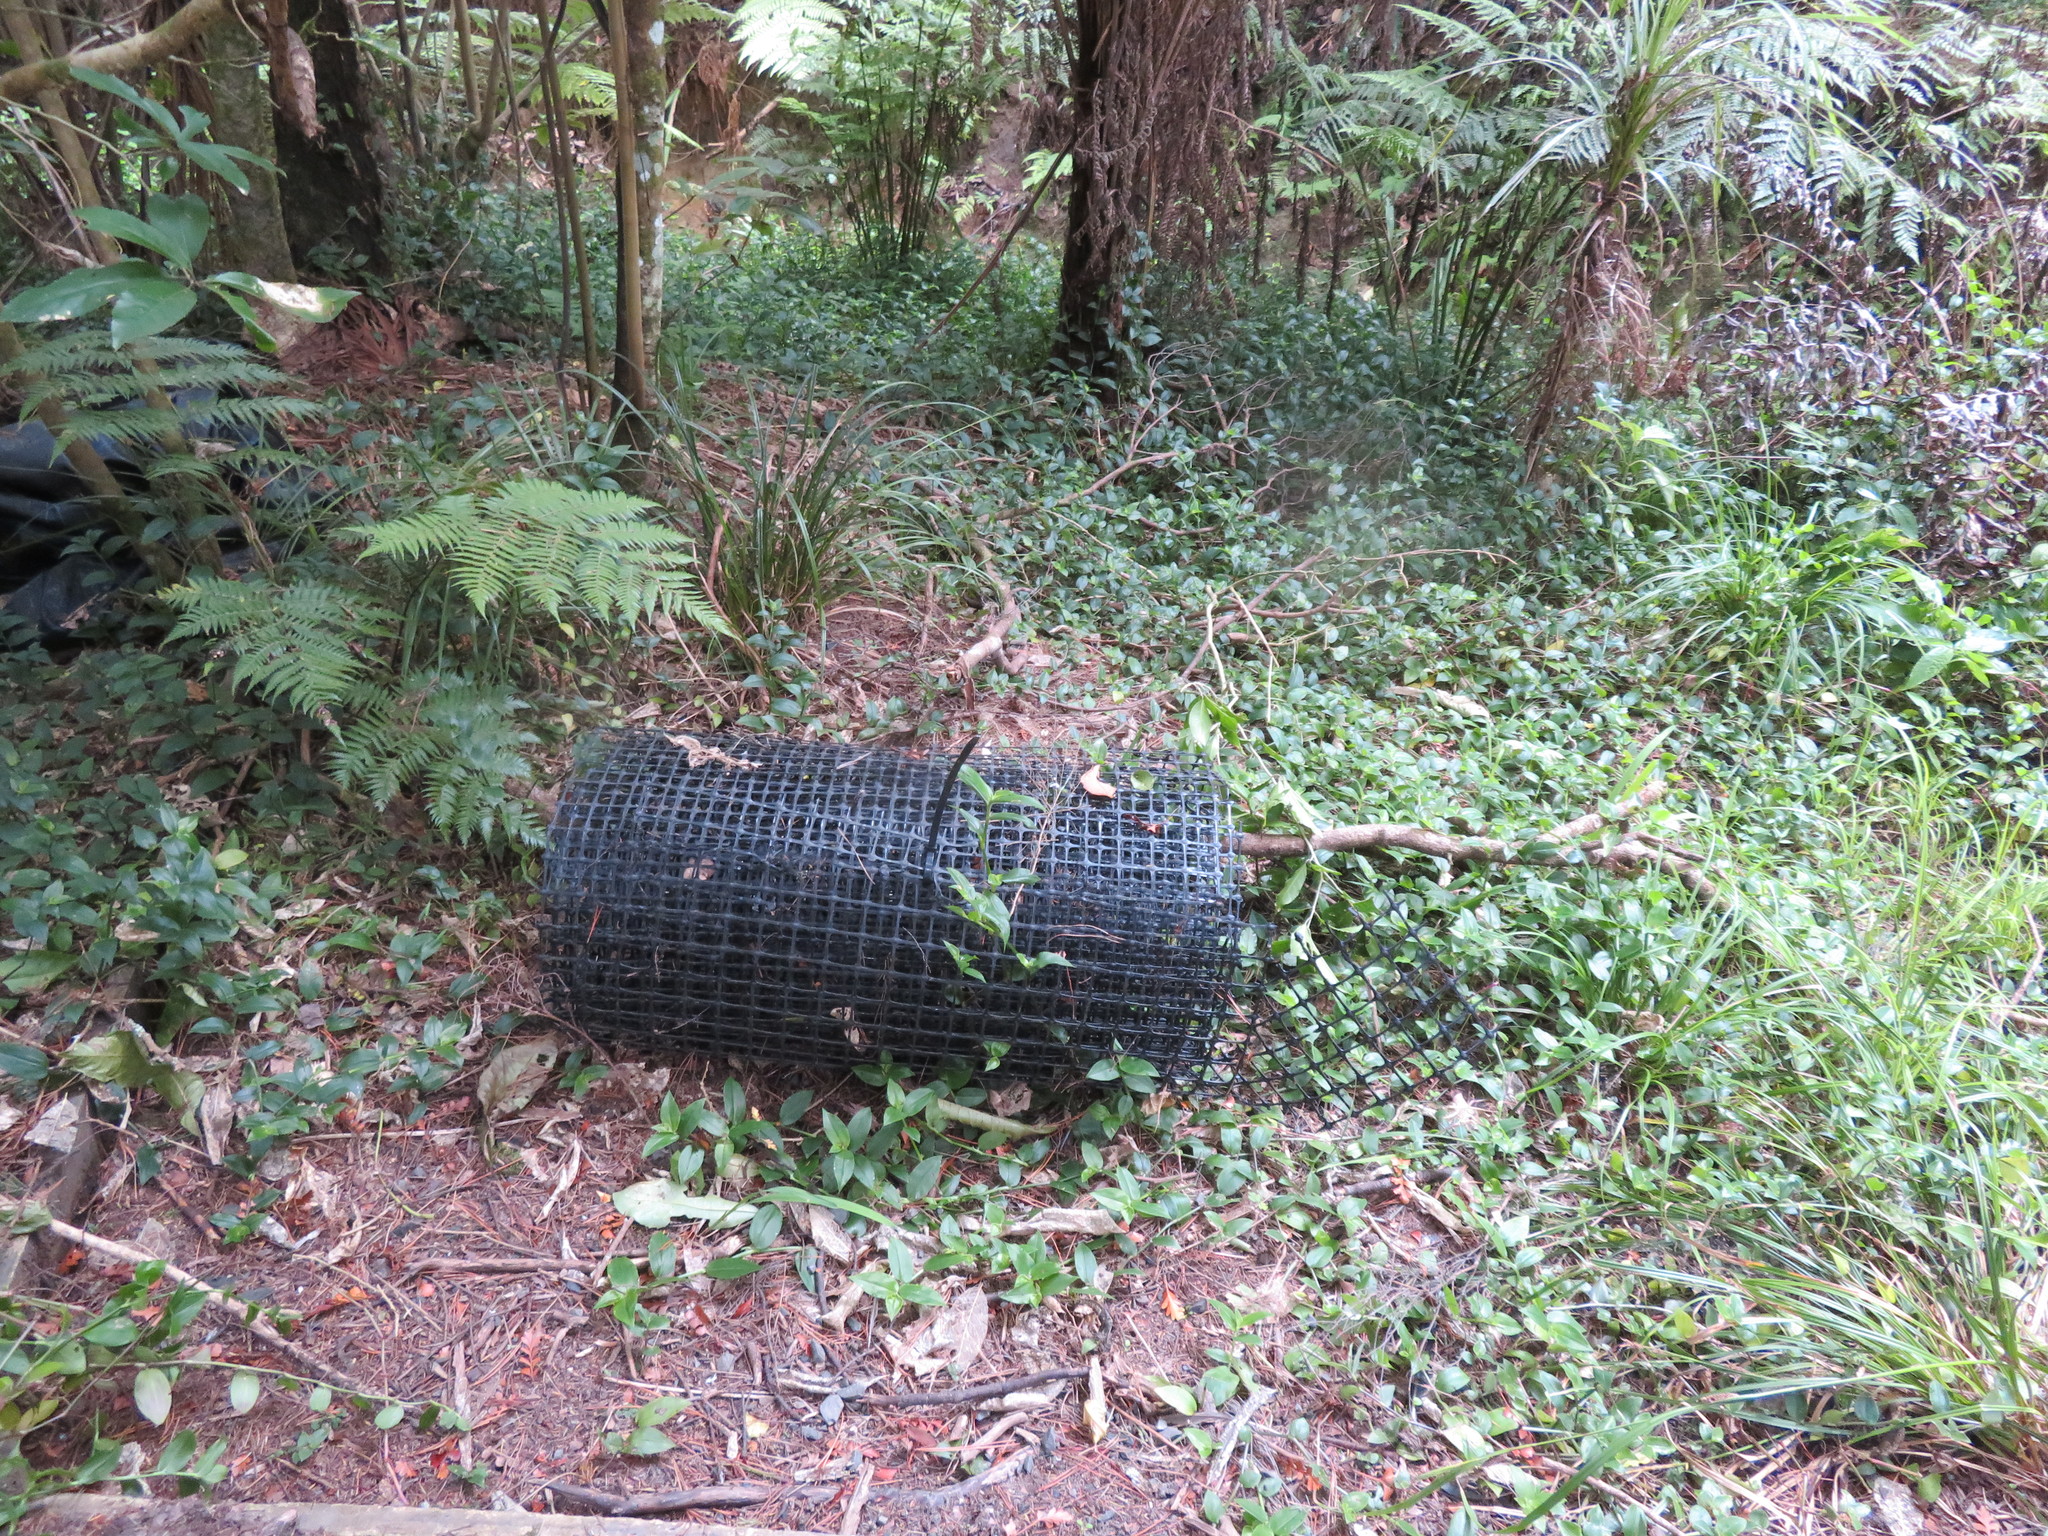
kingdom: Plantae
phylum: Tracheophyta
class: Liliopsida
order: Commelinales
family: Commelinaceae
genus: Tradescantia
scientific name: Tradescantia fluminensis
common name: Wandering-jew
